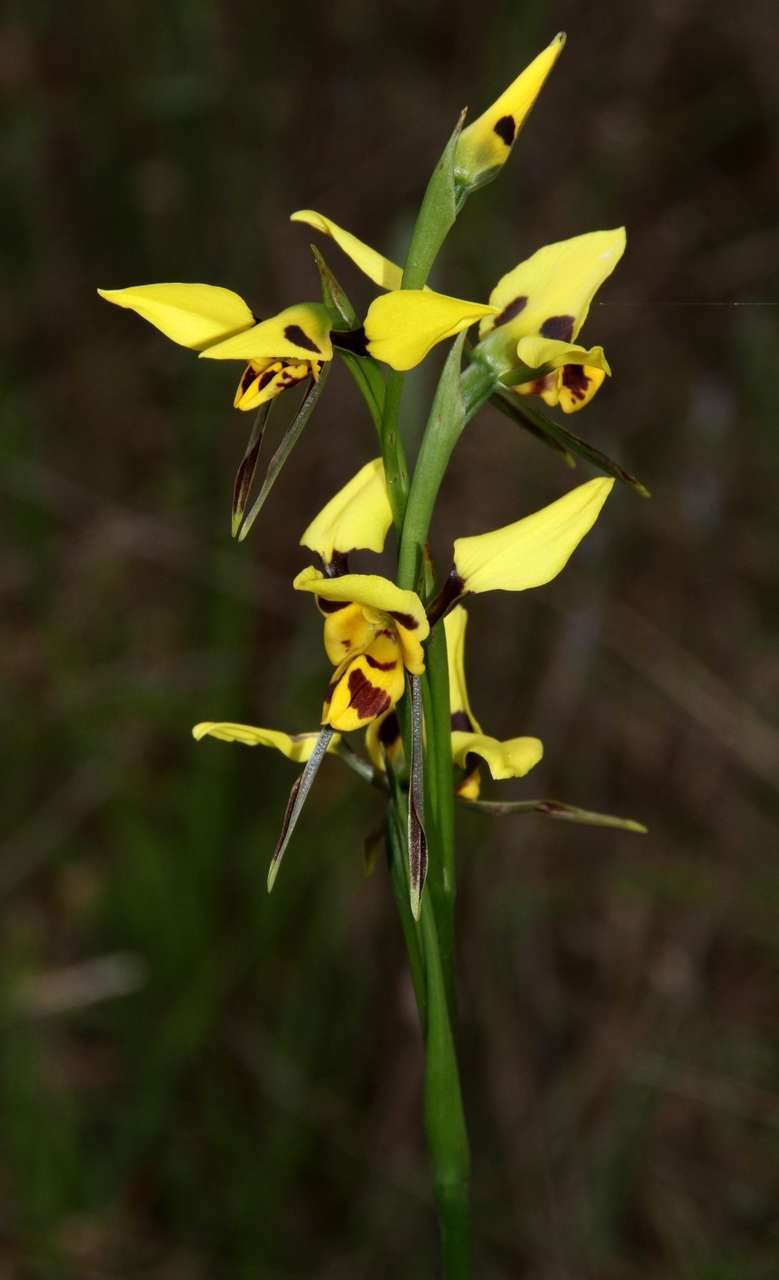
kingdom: Plantae
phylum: Tracheophyta
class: Liliopsida
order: Asparagales
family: Orchidaceae
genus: Diuris
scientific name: Diuris sulphurea
